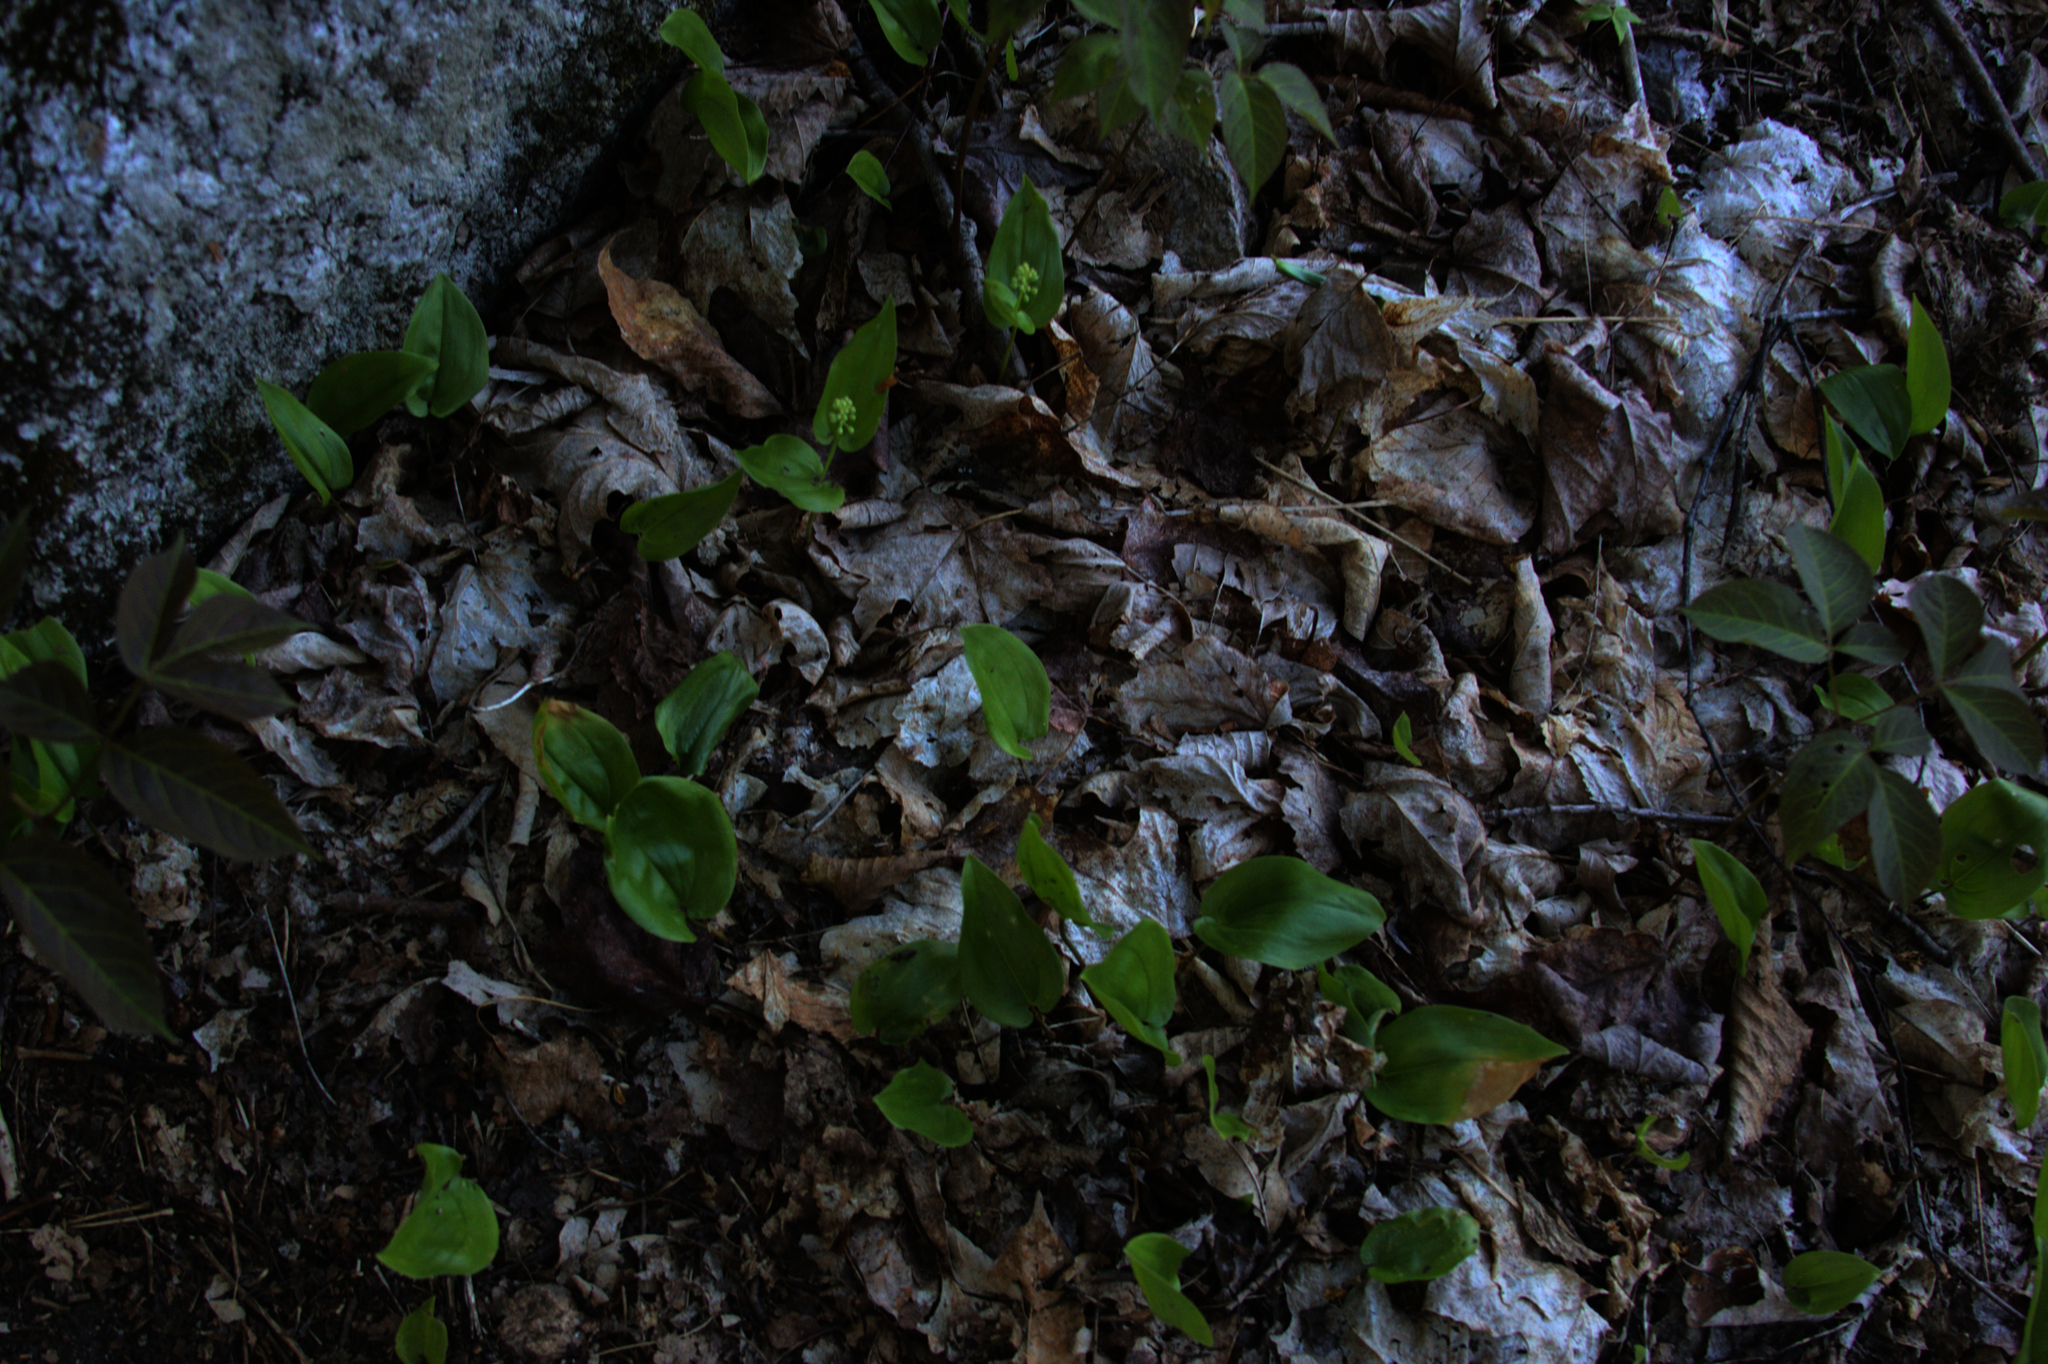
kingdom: Plantae
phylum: Tracheophyta
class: Liliopsida
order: Asparagales
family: Asparagaceae
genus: Maianthemum
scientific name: Maianthemum canadense
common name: False lily-of-the-valley
